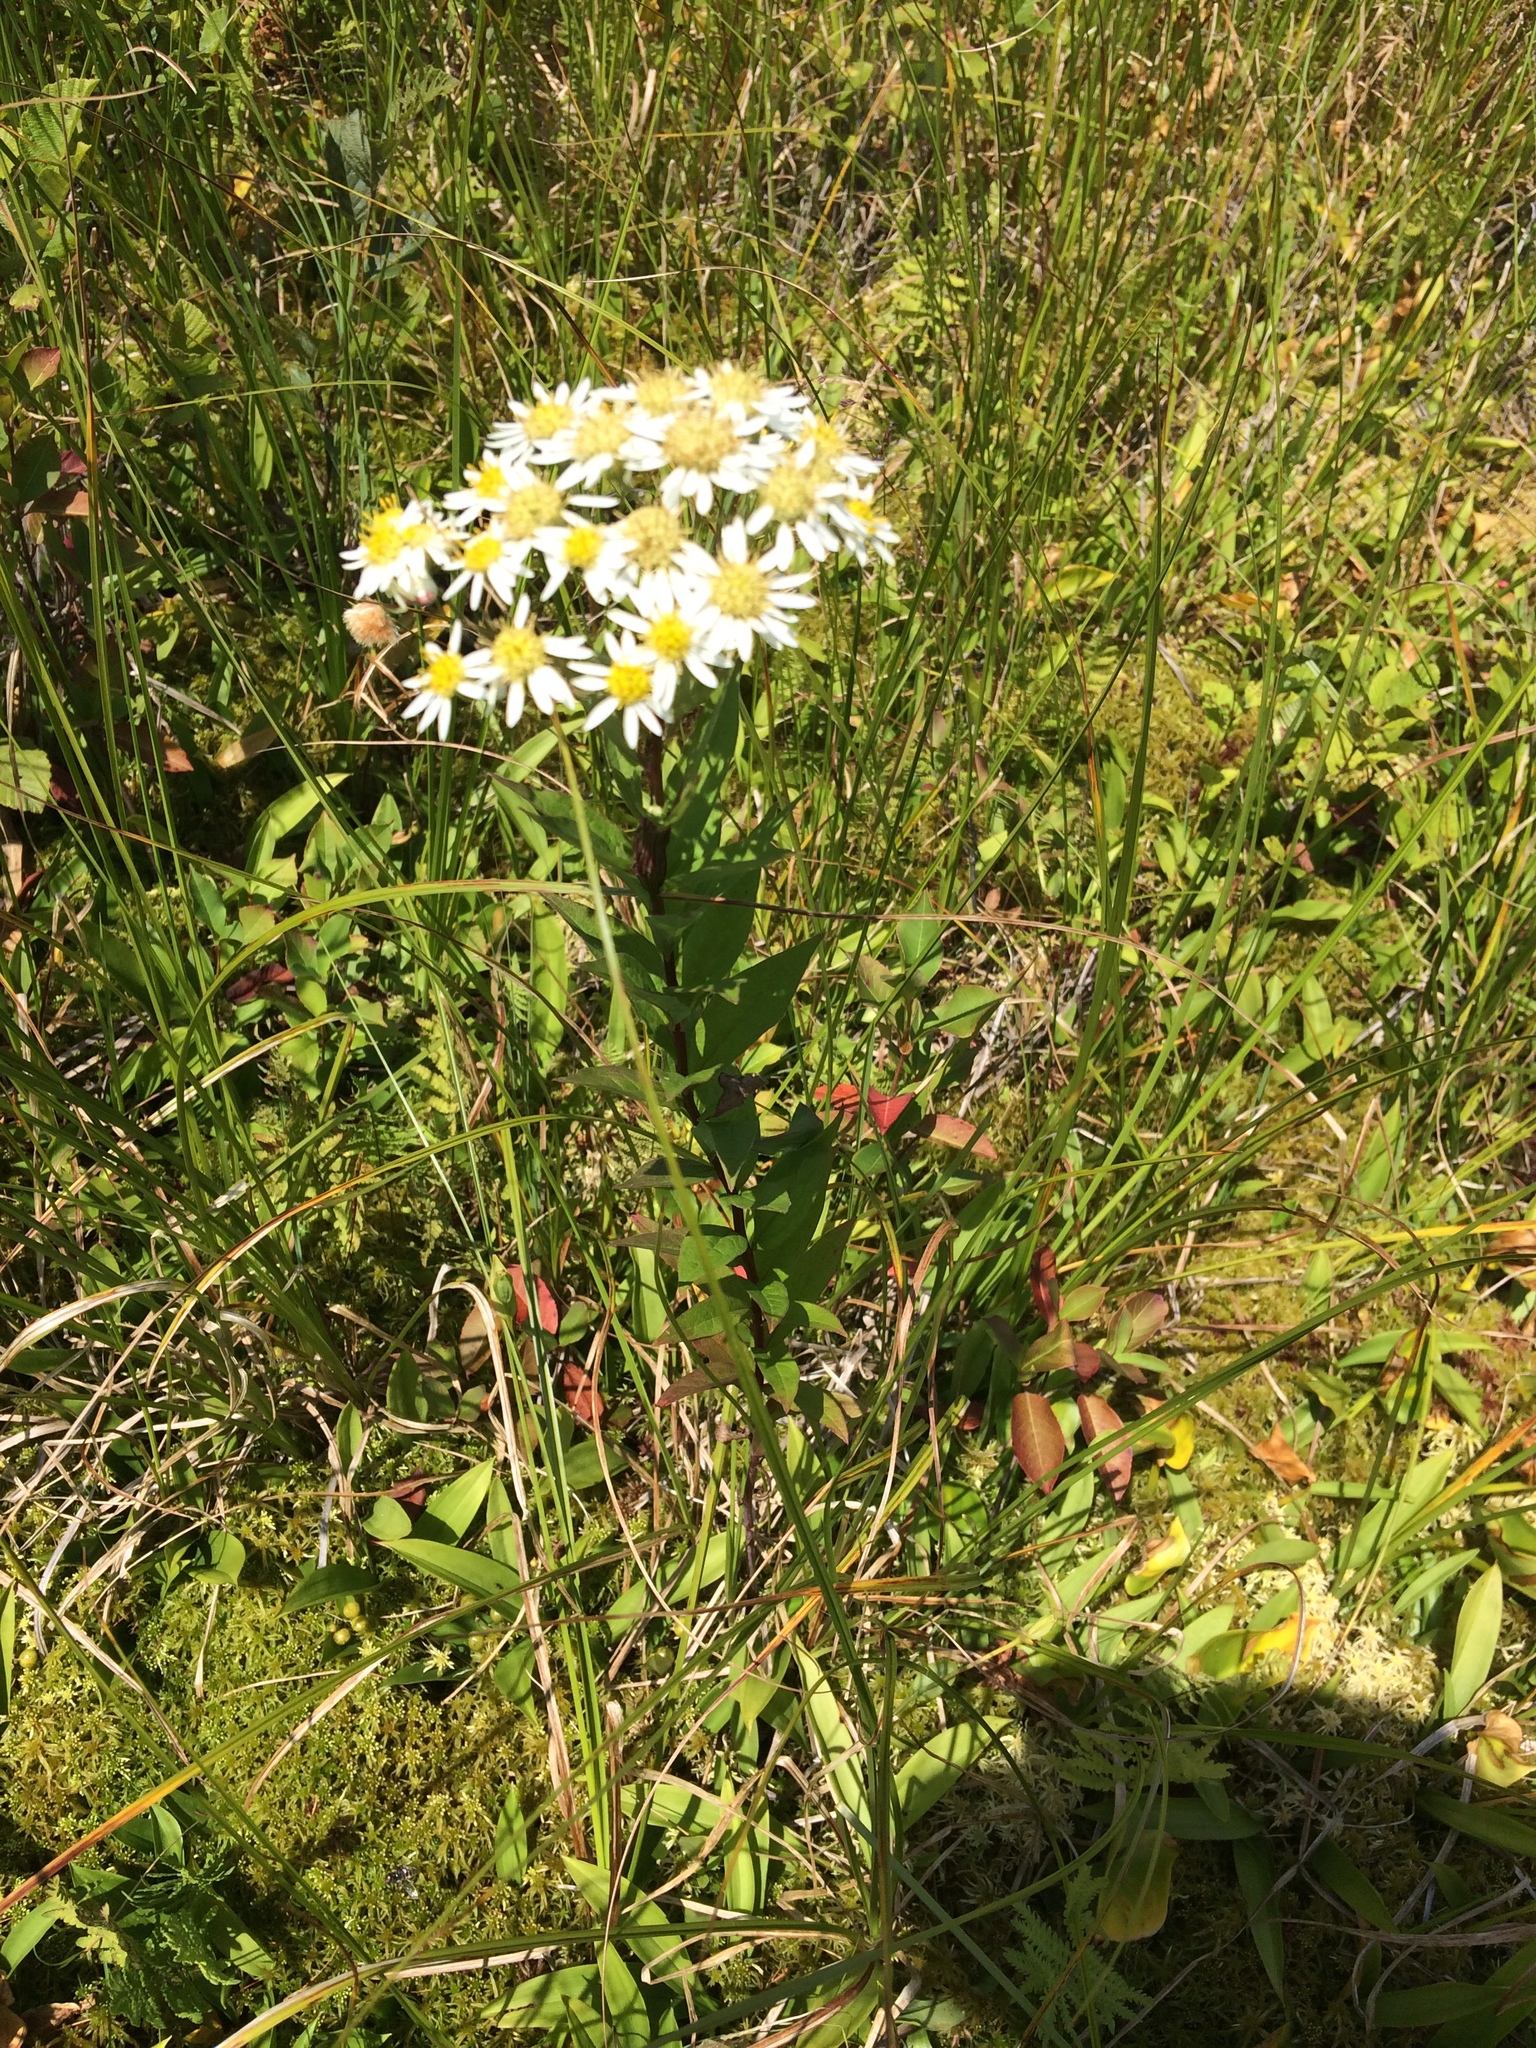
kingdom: Plantae
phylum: Tracheophyta
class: Magnoliopsida
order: Asterales
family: Asteraceae
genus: Doellingeria
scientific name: Doellingeria umbellata
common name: Flat-top white aster
